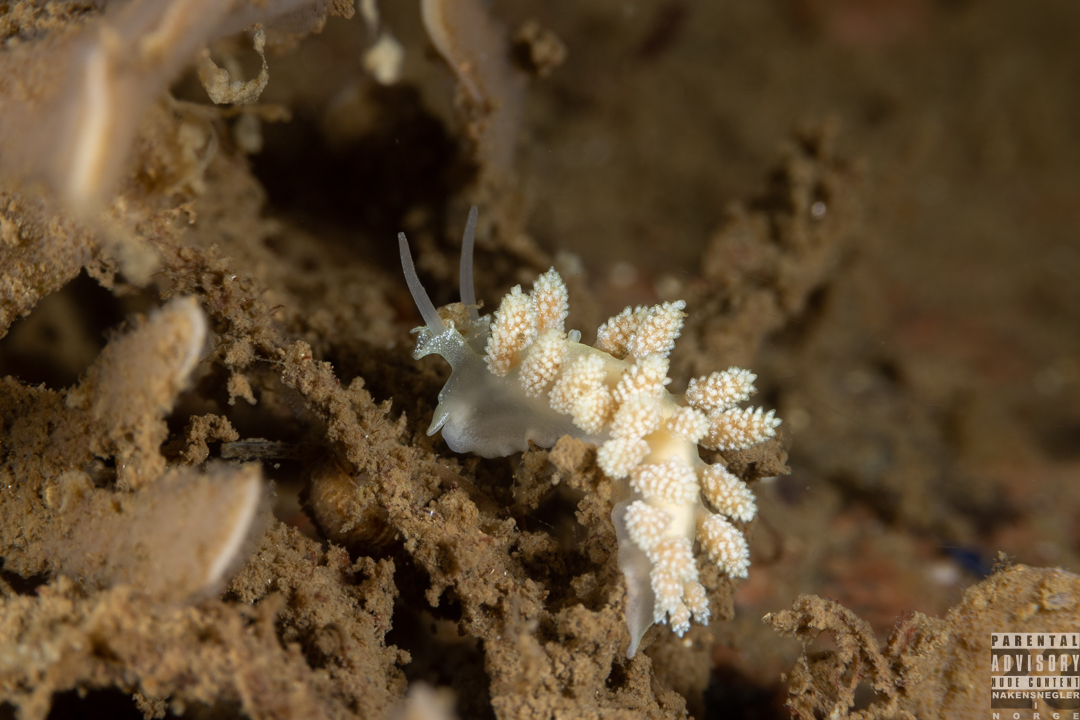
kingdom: Animalia
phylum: Mollusca
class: Gastropoda
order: Nudibranchia
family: Dotidae
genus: Doto
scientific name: Doto fragilis
